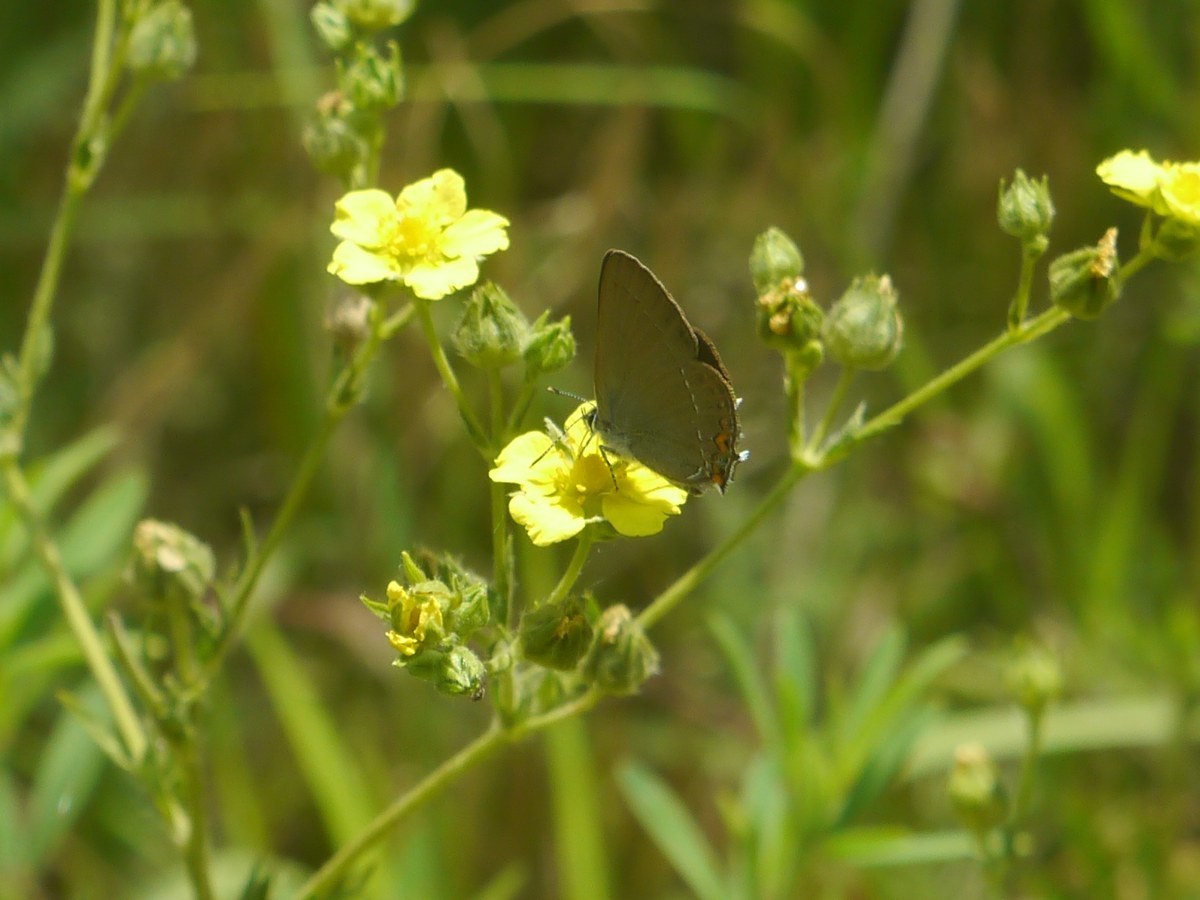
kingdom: Animalia
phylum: Arthropoda
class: Insecta
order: Lepidoptera
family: Lycaenidae
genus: Strymon
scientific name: Strymon acaciae
